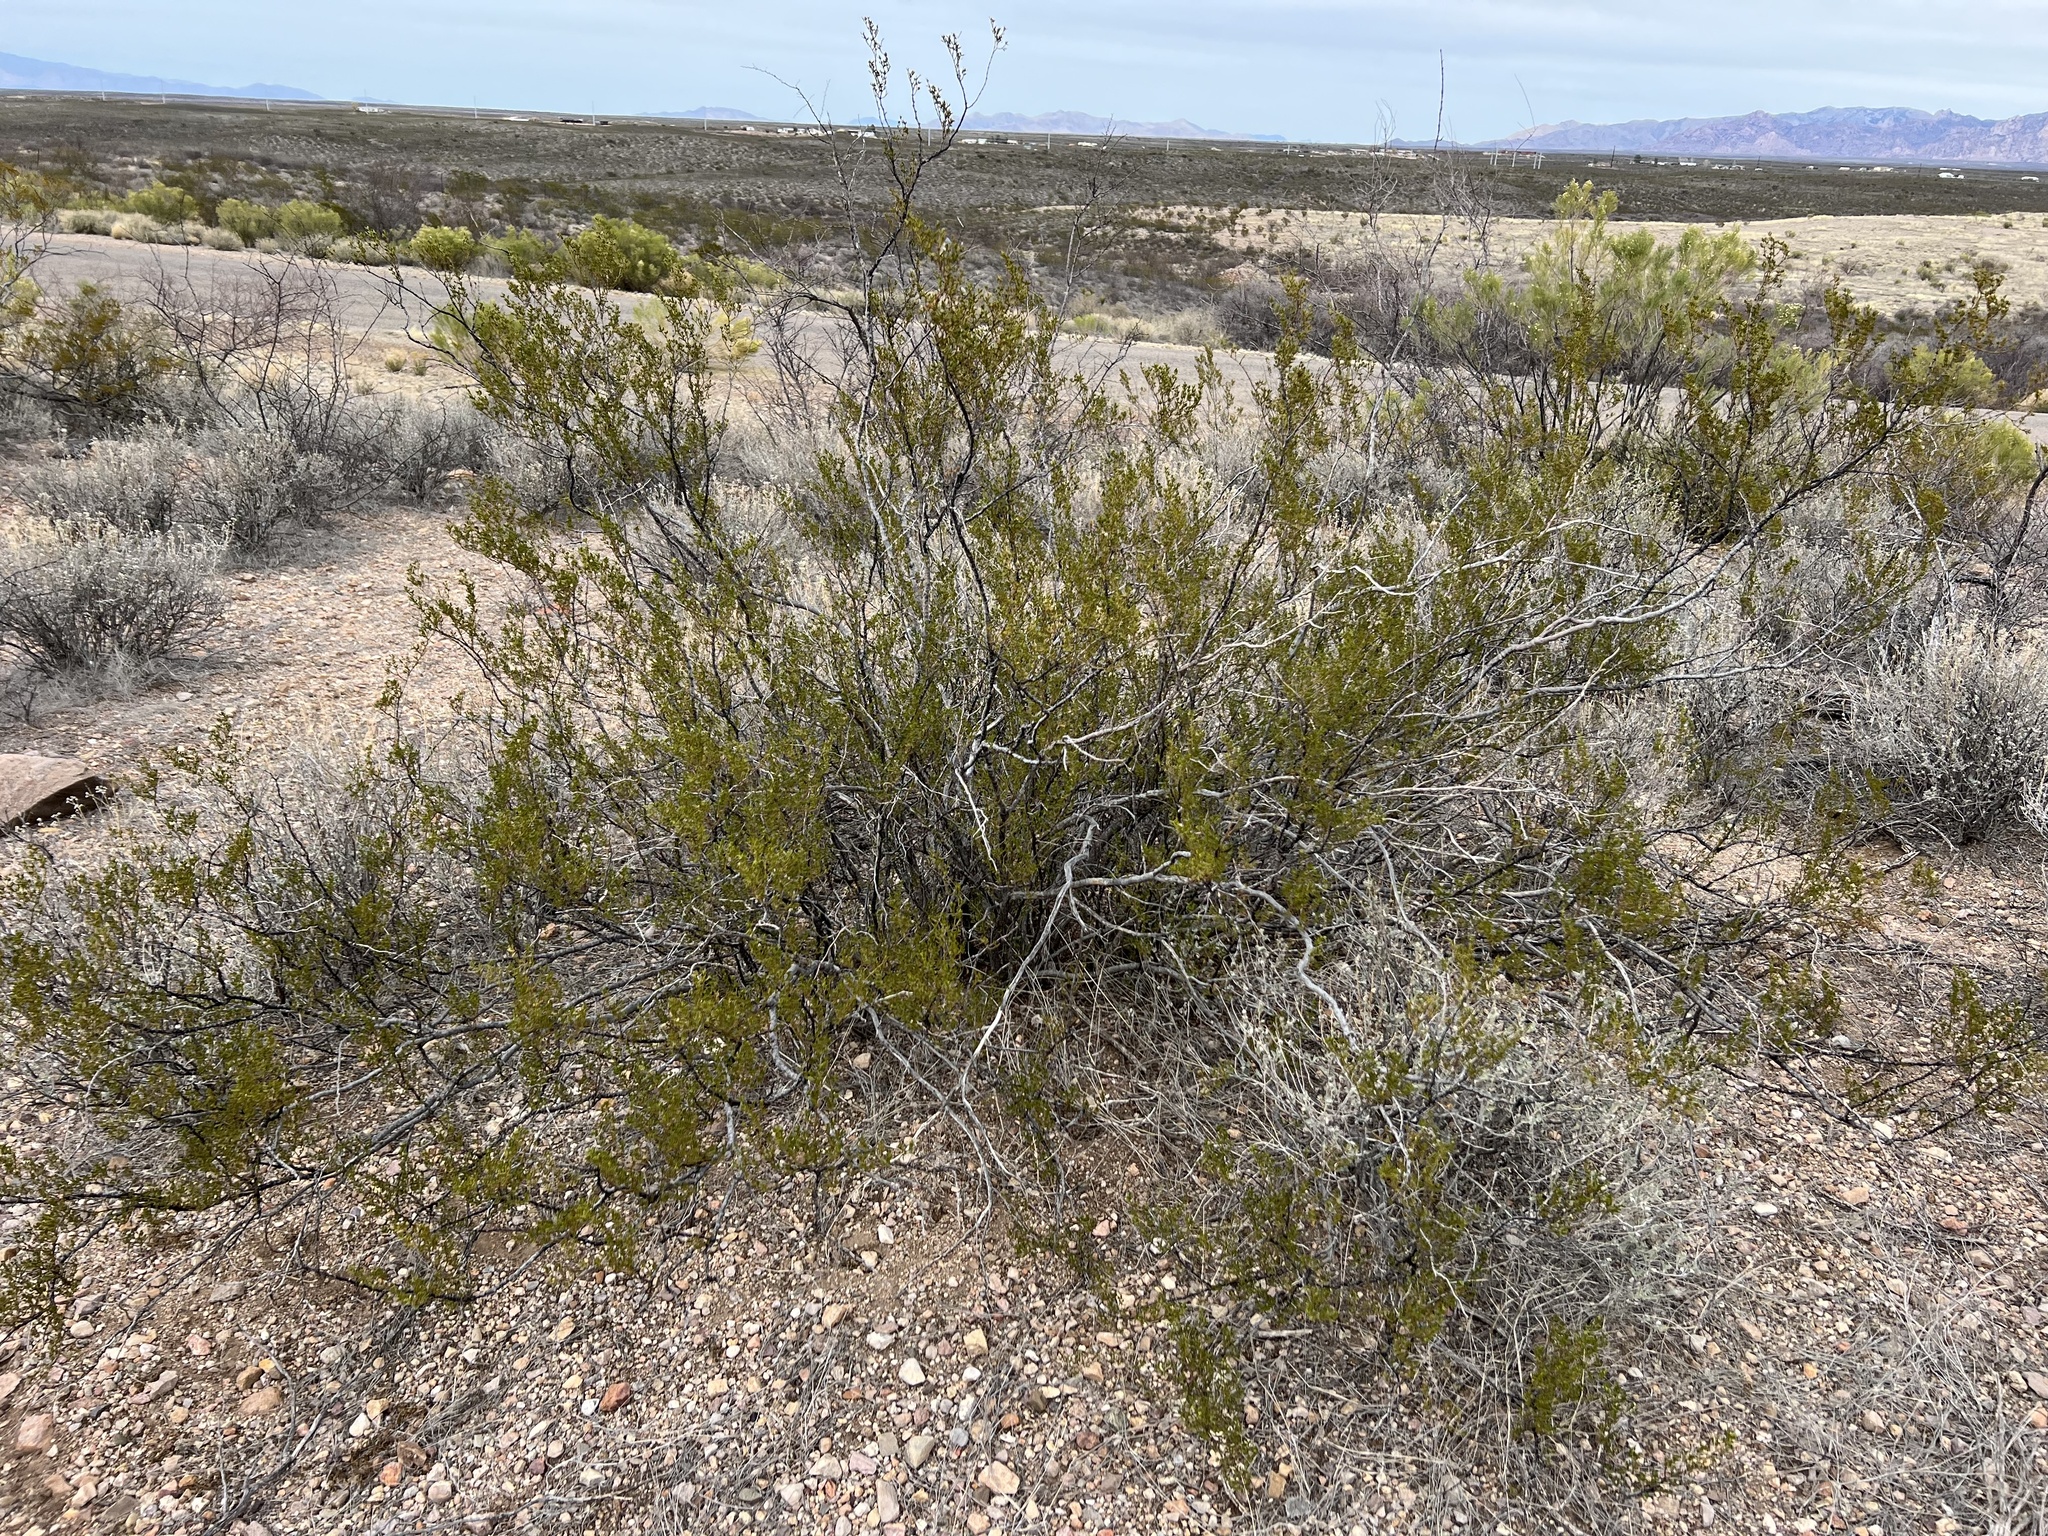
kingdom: Plantae
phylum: Tracheophyta
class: Magnoliopsida
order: Zygophyllales
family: Zygophyllaceae
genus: Larrea
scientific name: Larrea tridentata
